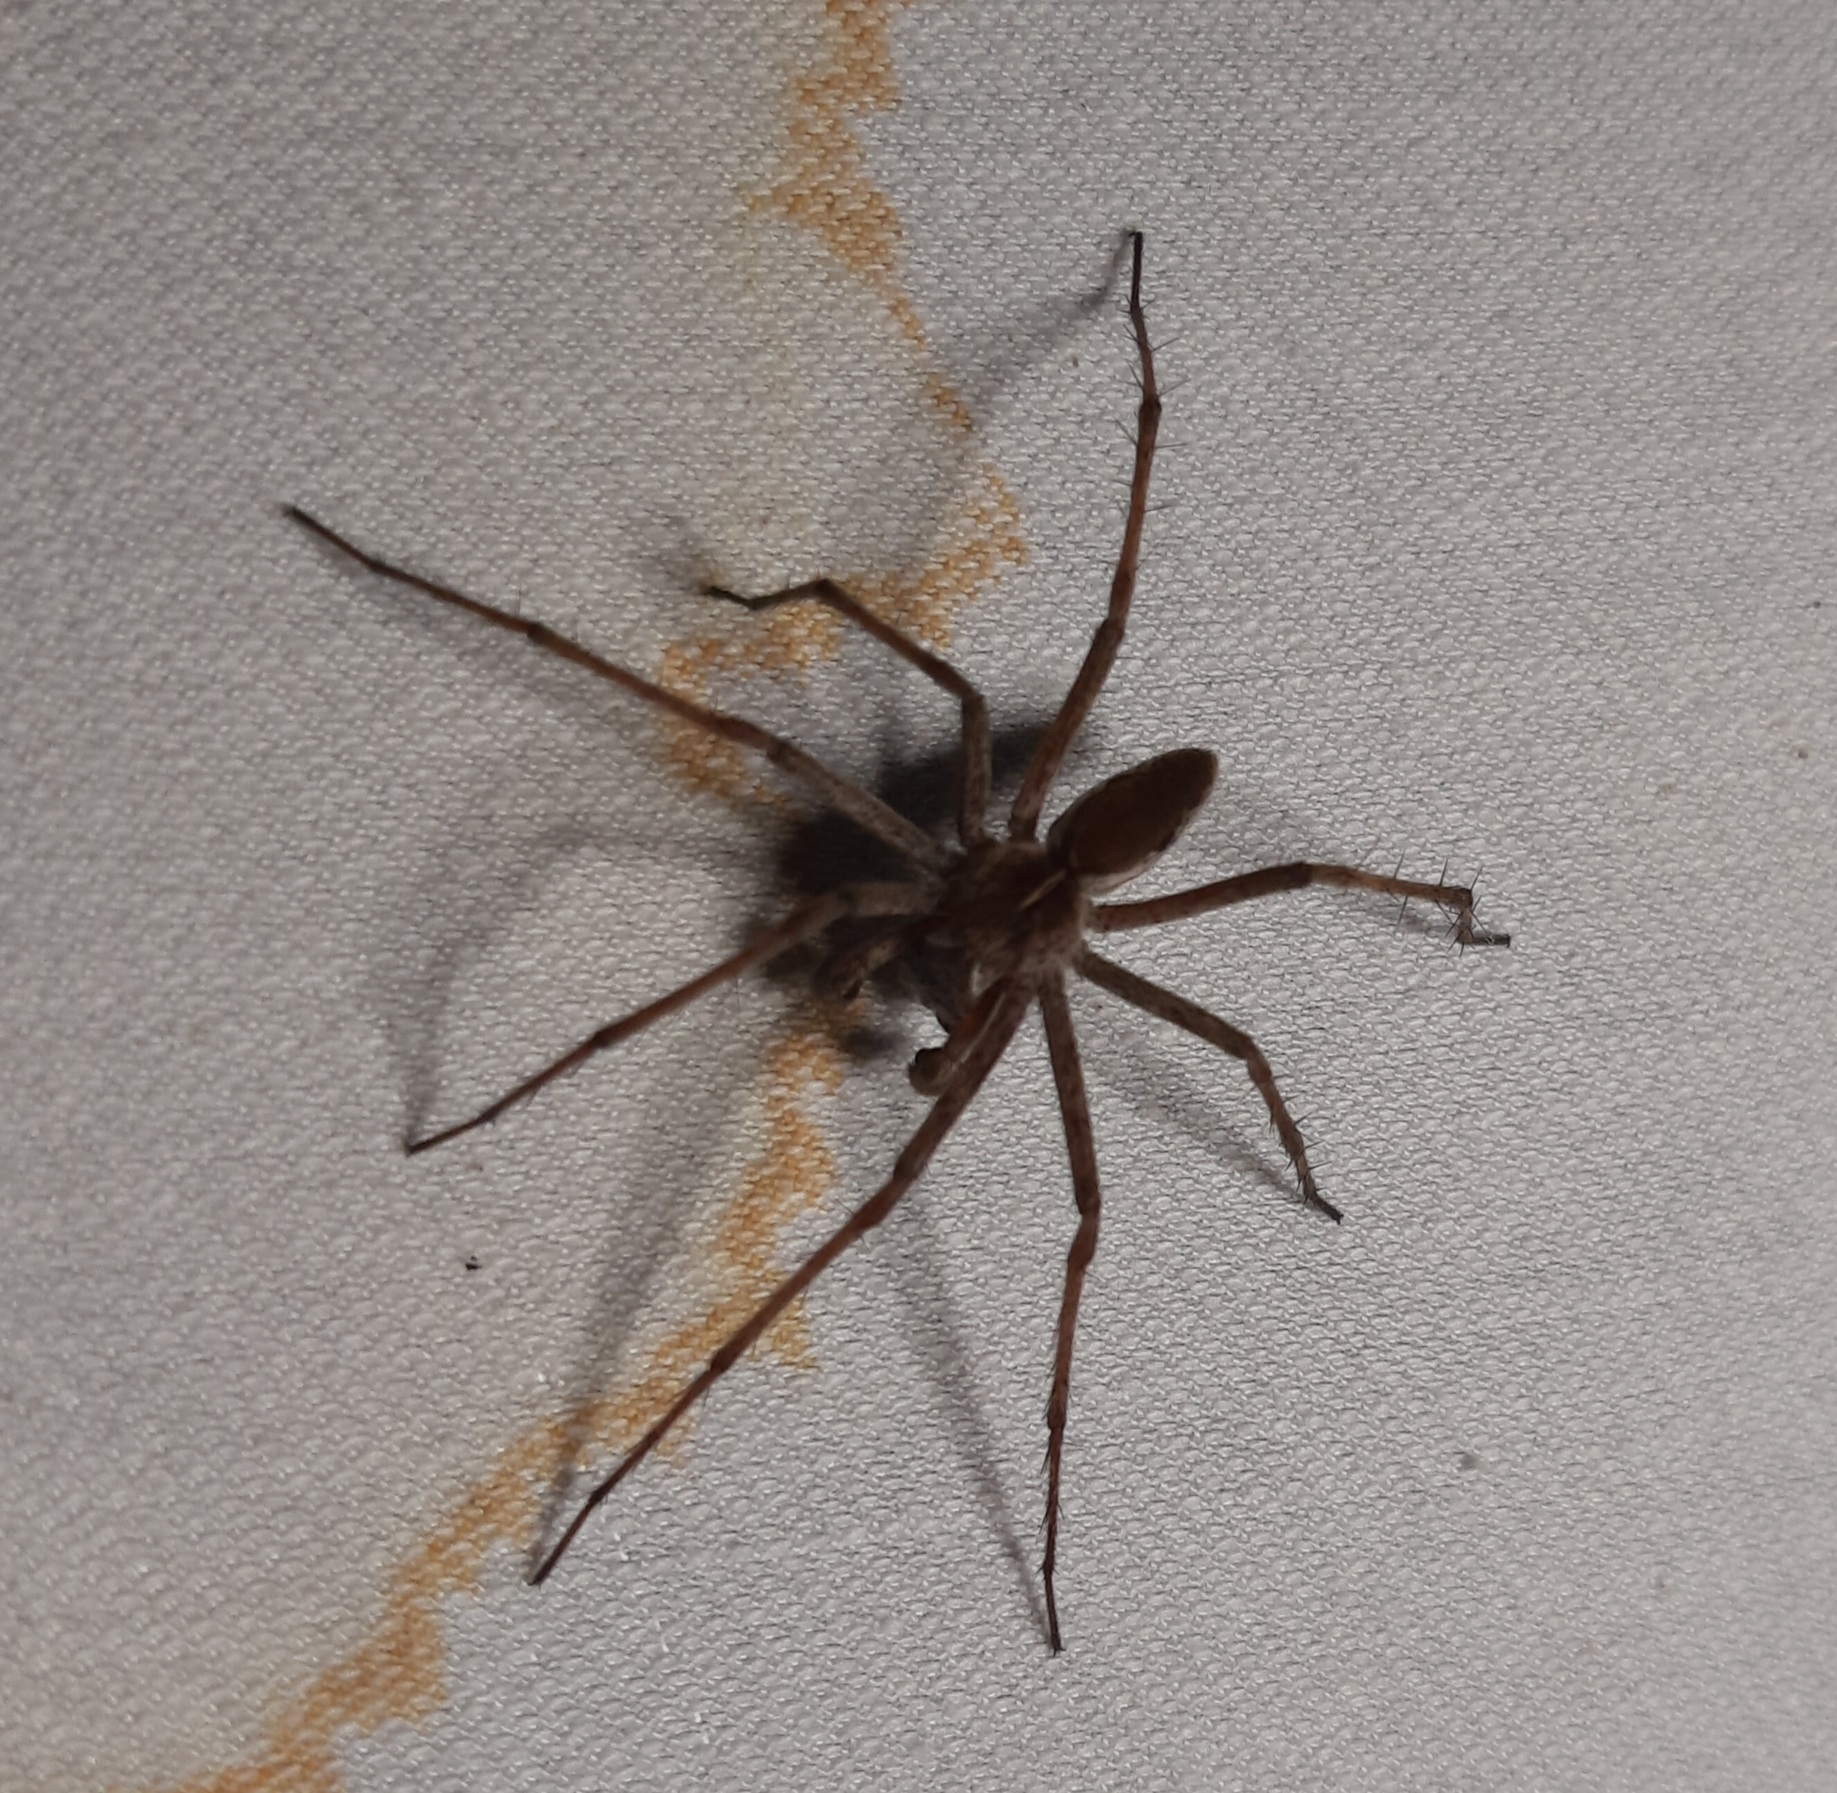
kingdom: Animalia
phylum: Arthropoda
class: Arachnida
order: Araneae
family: Pisauridae
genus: Pisaura
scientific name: Pisaura mirabilis
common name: Tent spider
